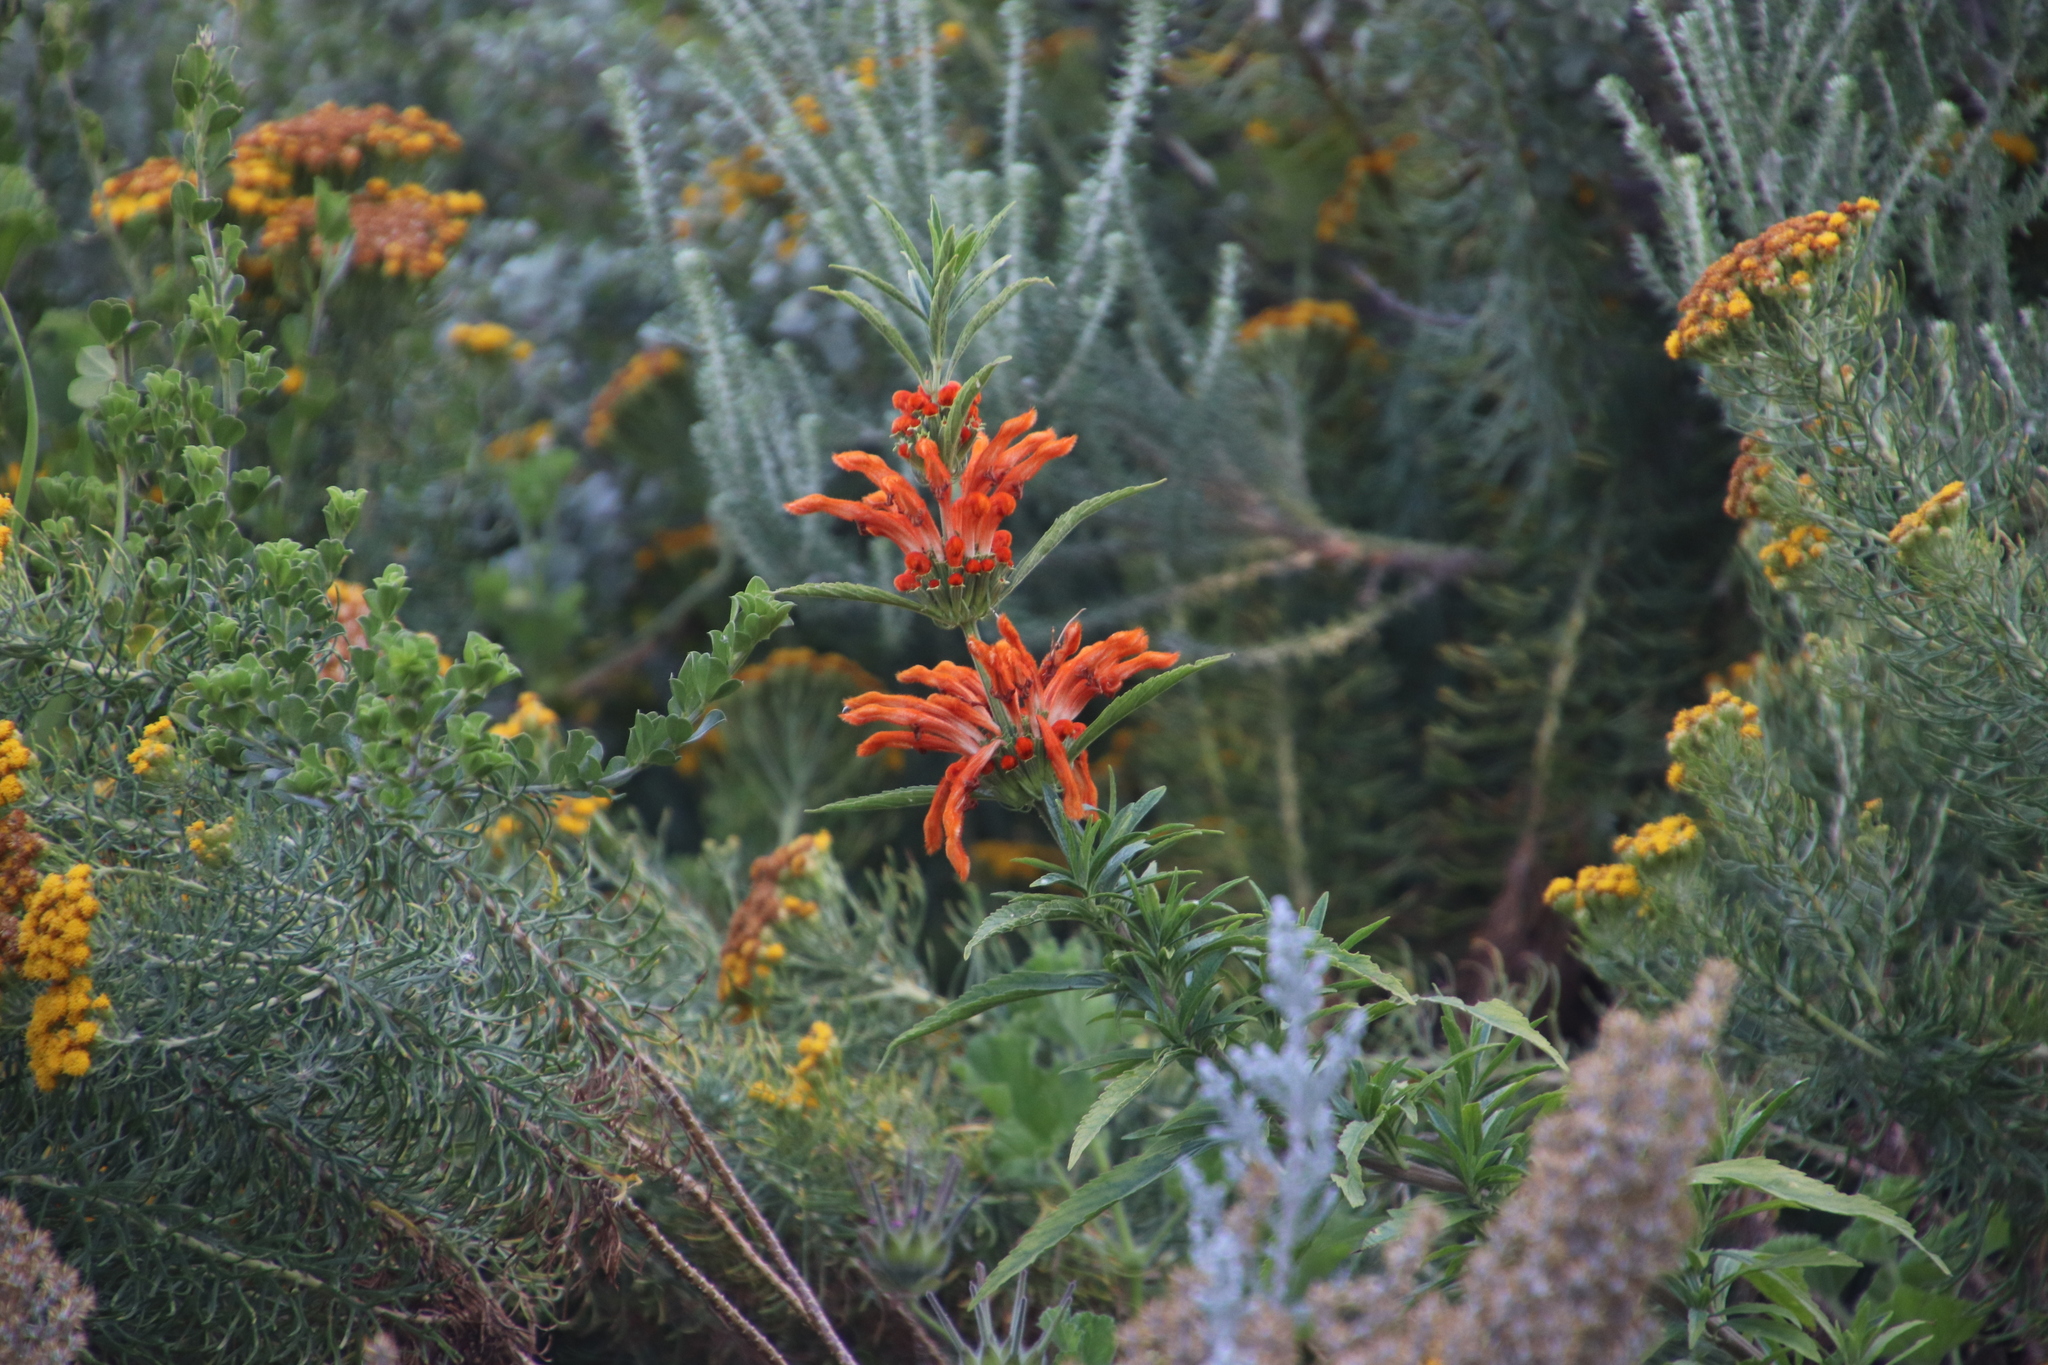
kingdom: Plantae
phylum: Tracheophyta
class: Magnoliopsida
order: Lamiales
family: Lamiaceae
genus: Leonotis
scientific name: Leonotis leonurus
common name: Lion's ear
